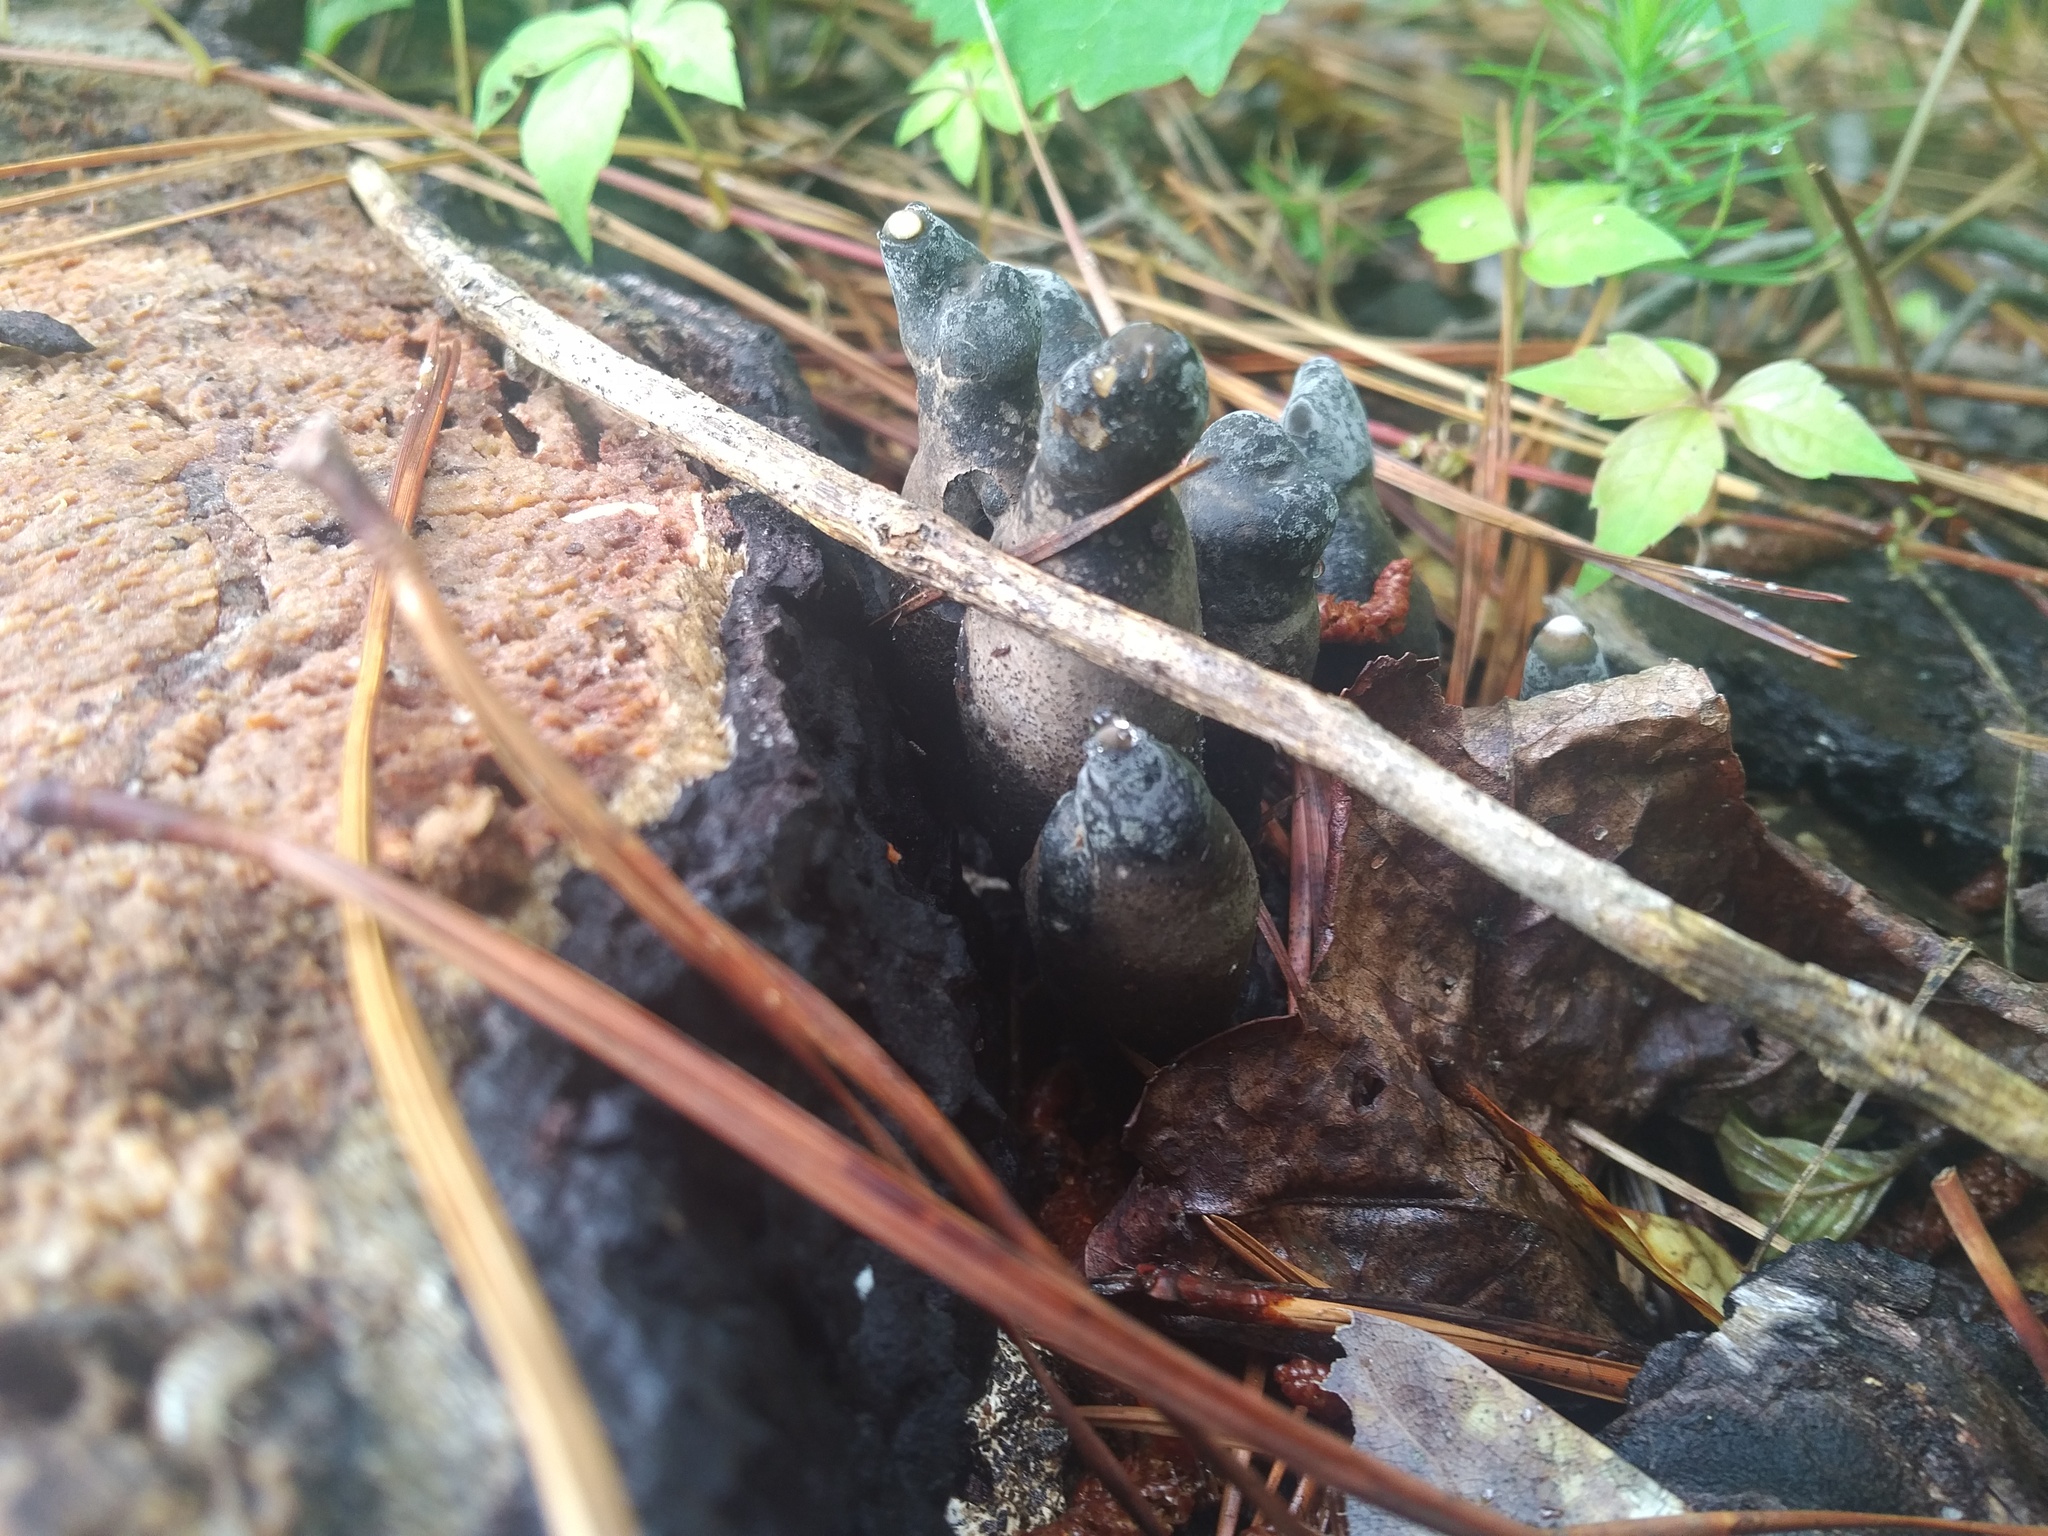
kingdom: Fungi
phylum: Ascomycota
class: Sordariomycetes
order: Xylariales
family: Xylariaceae
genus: Xylaria
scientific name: Xylaria polymorpha
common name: Dead man's fingers
